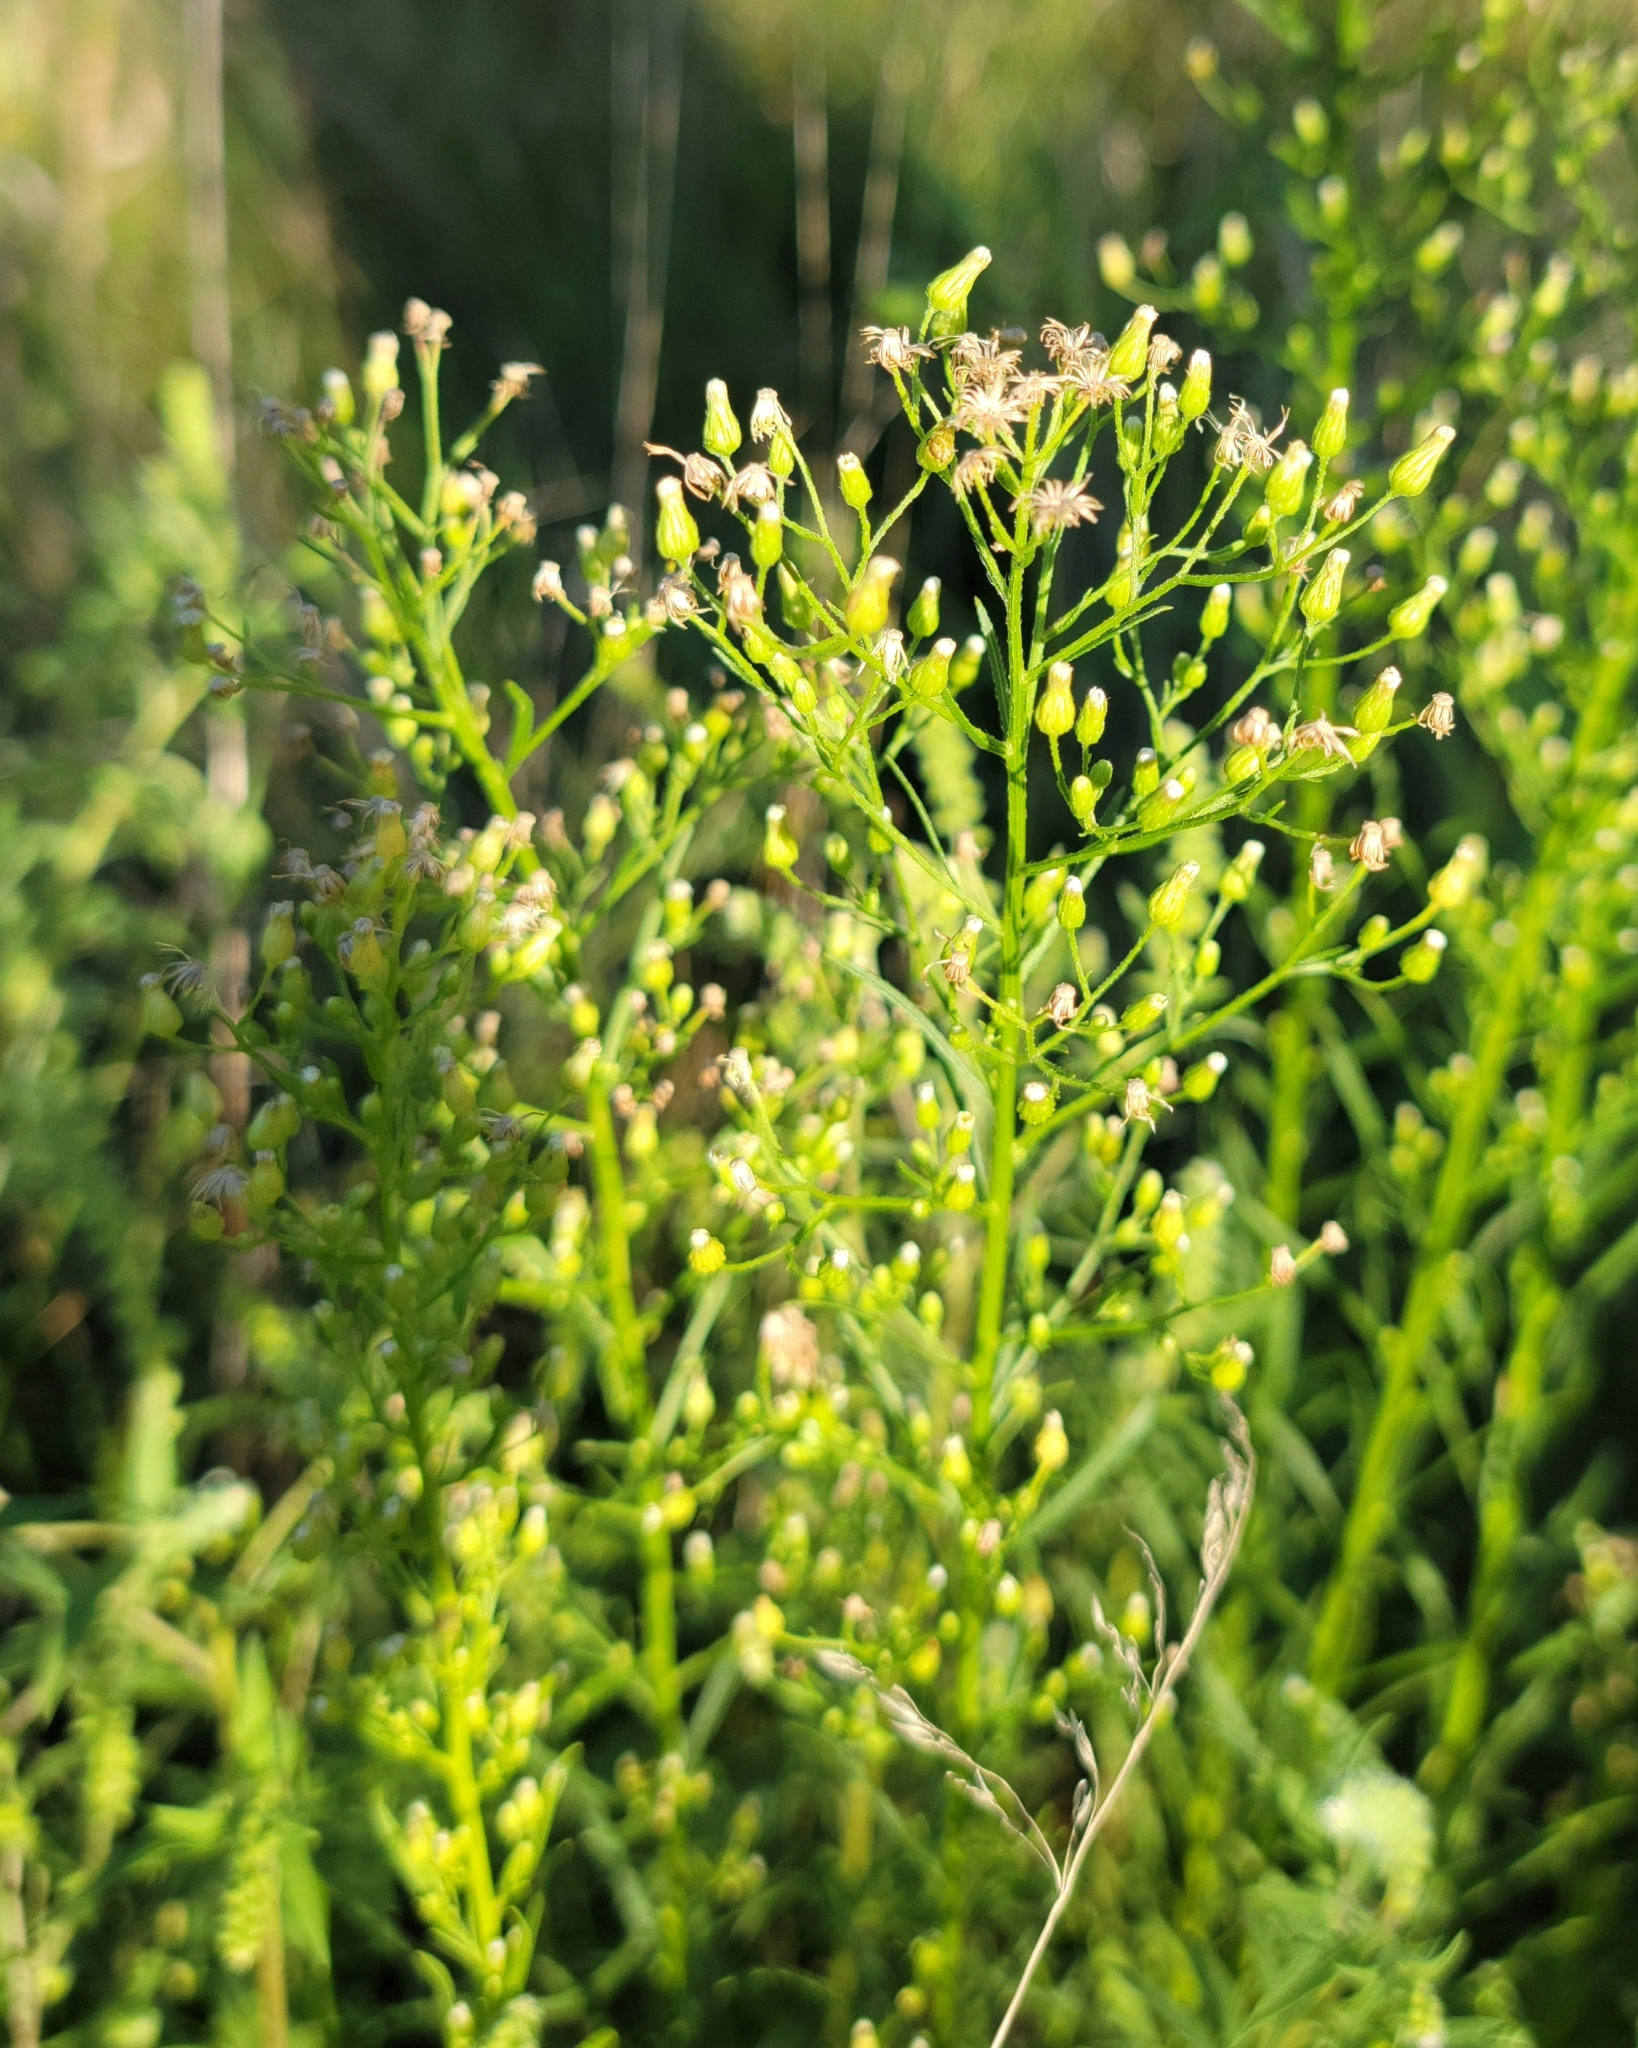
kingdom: Plantae
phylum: Tracheophyta
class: Magnoliopsida
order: Asterales
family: Asteraceae
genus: Erigeron
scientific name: Erigeron canadensis
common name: Canadian fleabane
